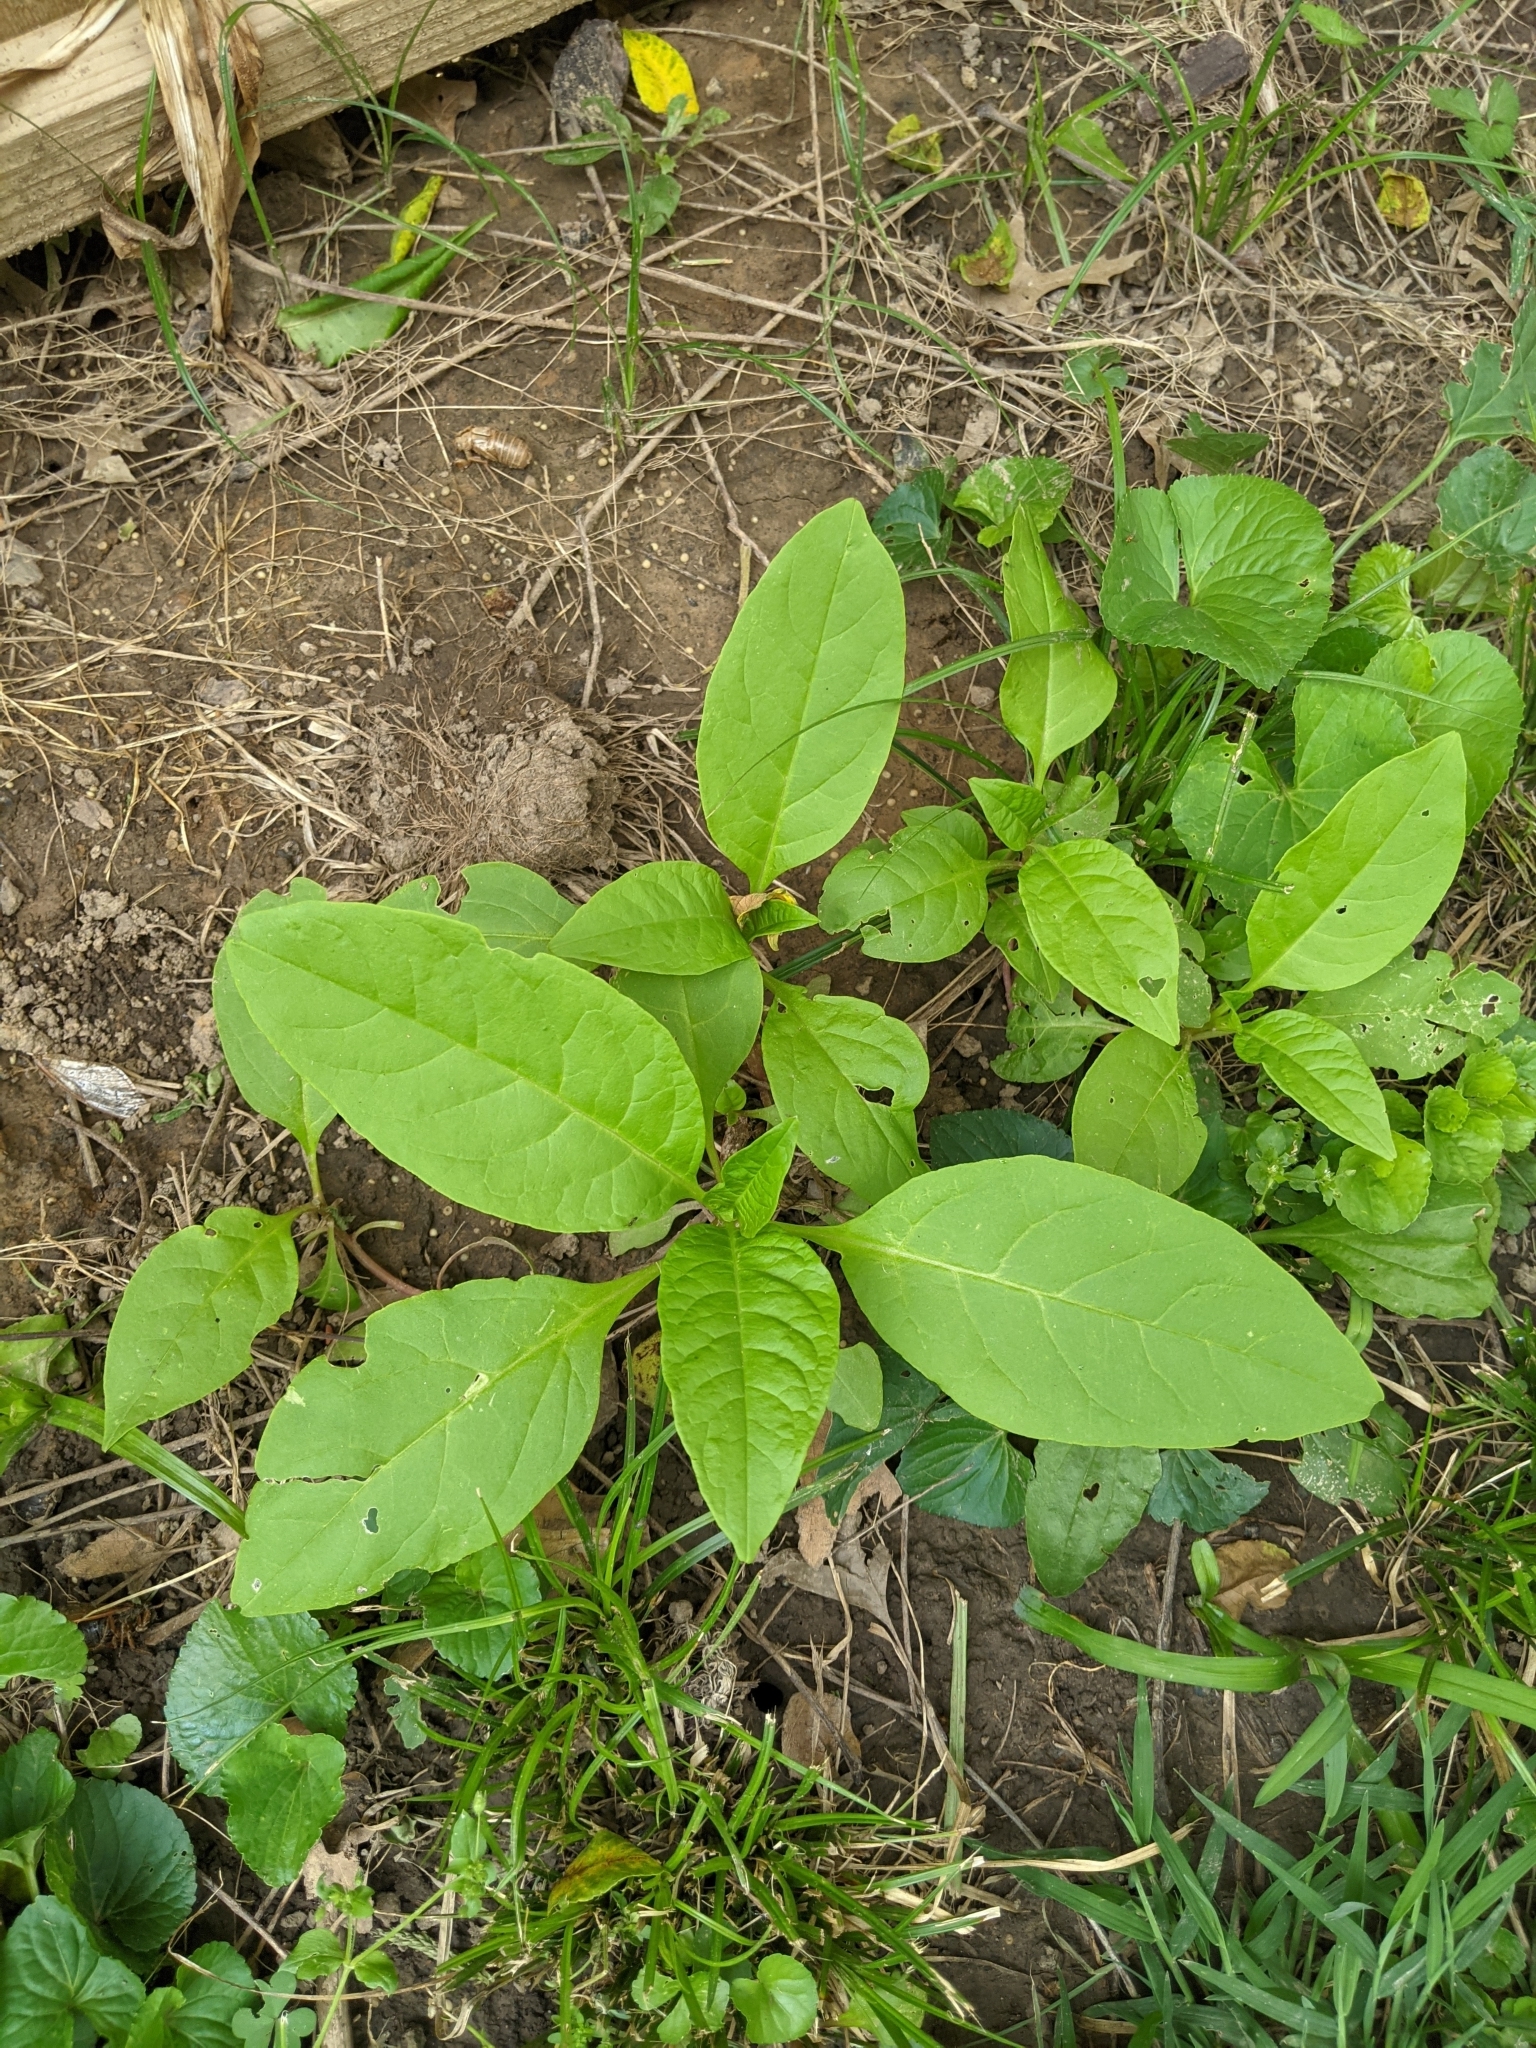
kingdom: Plantae
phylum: Tracheophyta
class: Magnoliopsida
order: Caryophyllales
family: Phytolaccaceae
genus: Phytolacca
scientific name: Phytolacca americana
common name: American pokeweed
